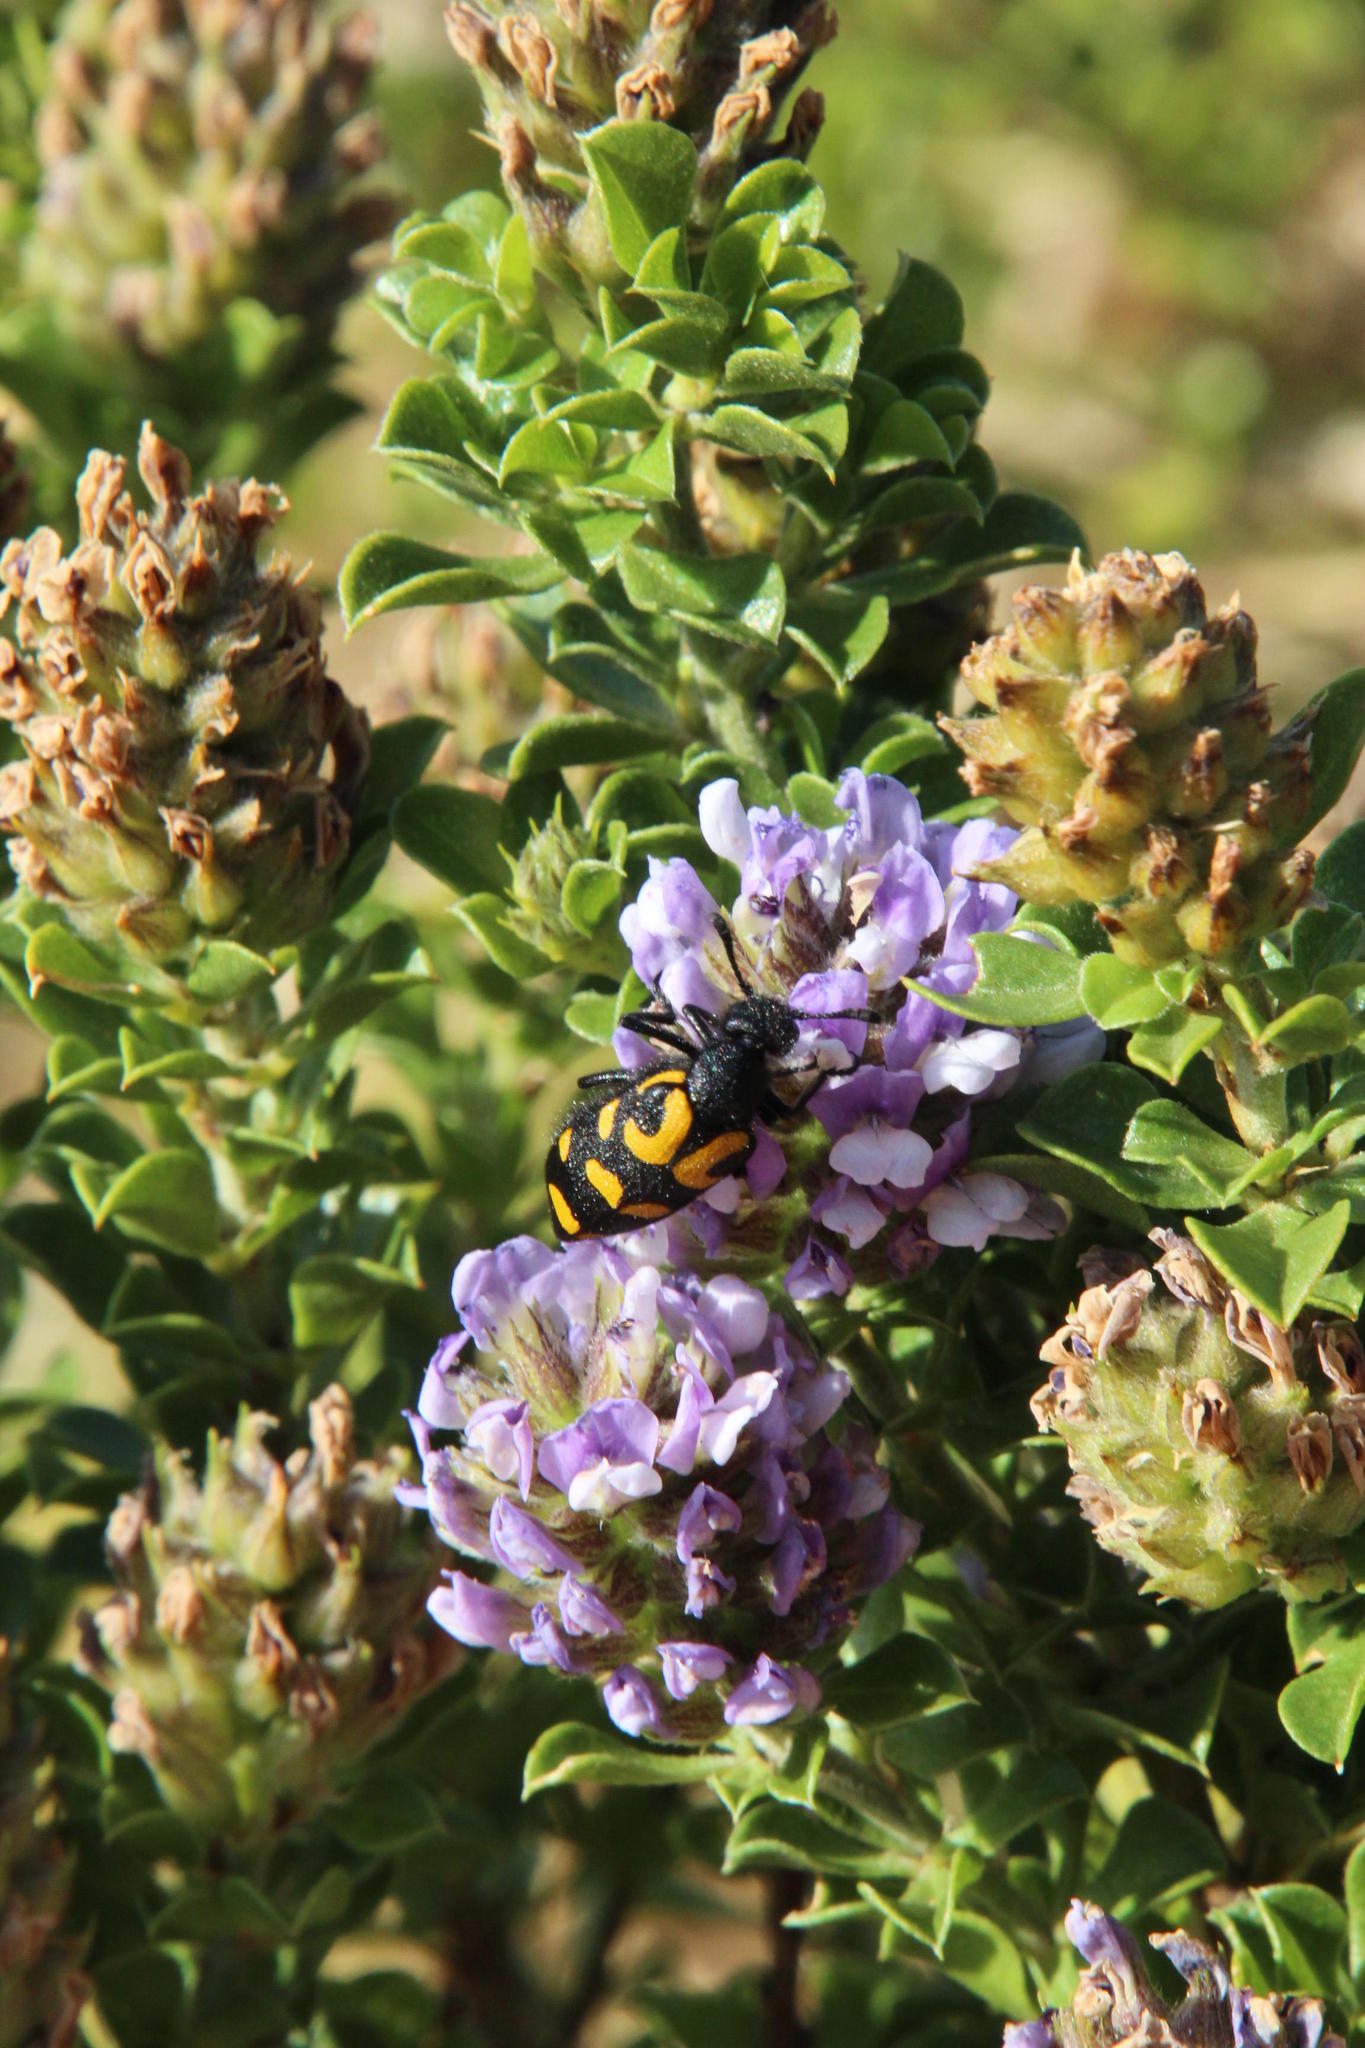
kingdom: Animalia
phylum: Arthropoda
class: Insecta
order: Coleoptera
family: Meloidae
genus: Ceroctis
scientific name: Ceroctis capensis
